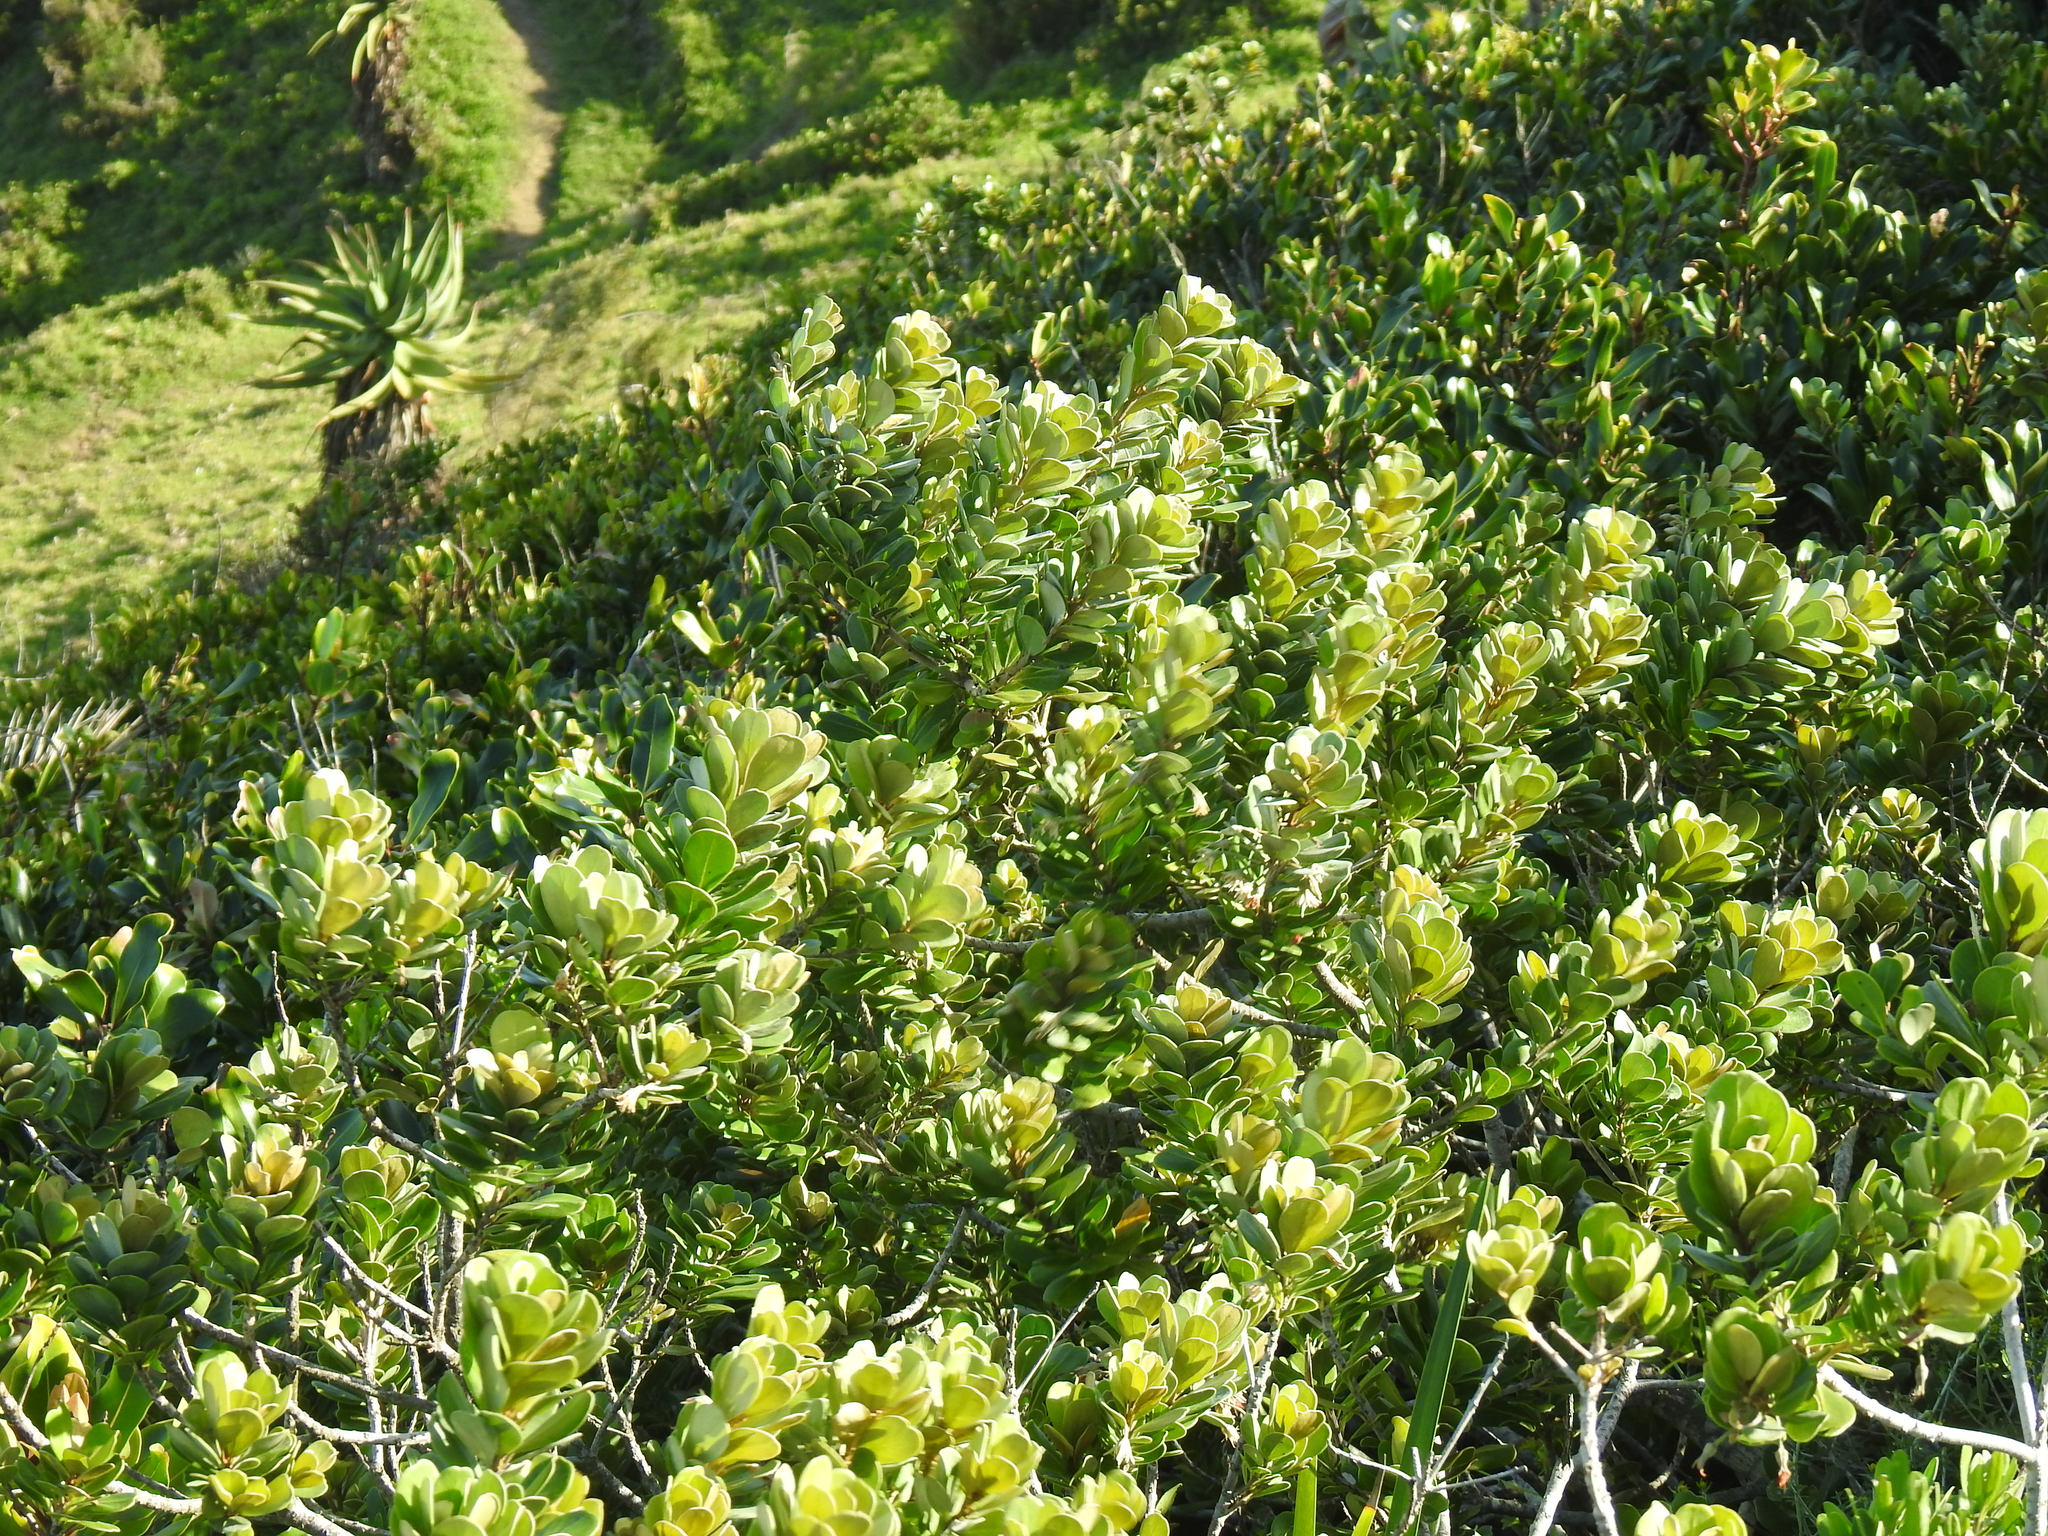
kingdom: Plantae
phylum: Tracheophyta
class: Magnoliopsida
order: Ericales
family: Sapotaceae
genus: Mimusops
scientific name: Mimusops caffra
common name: Coastal red milkwood
